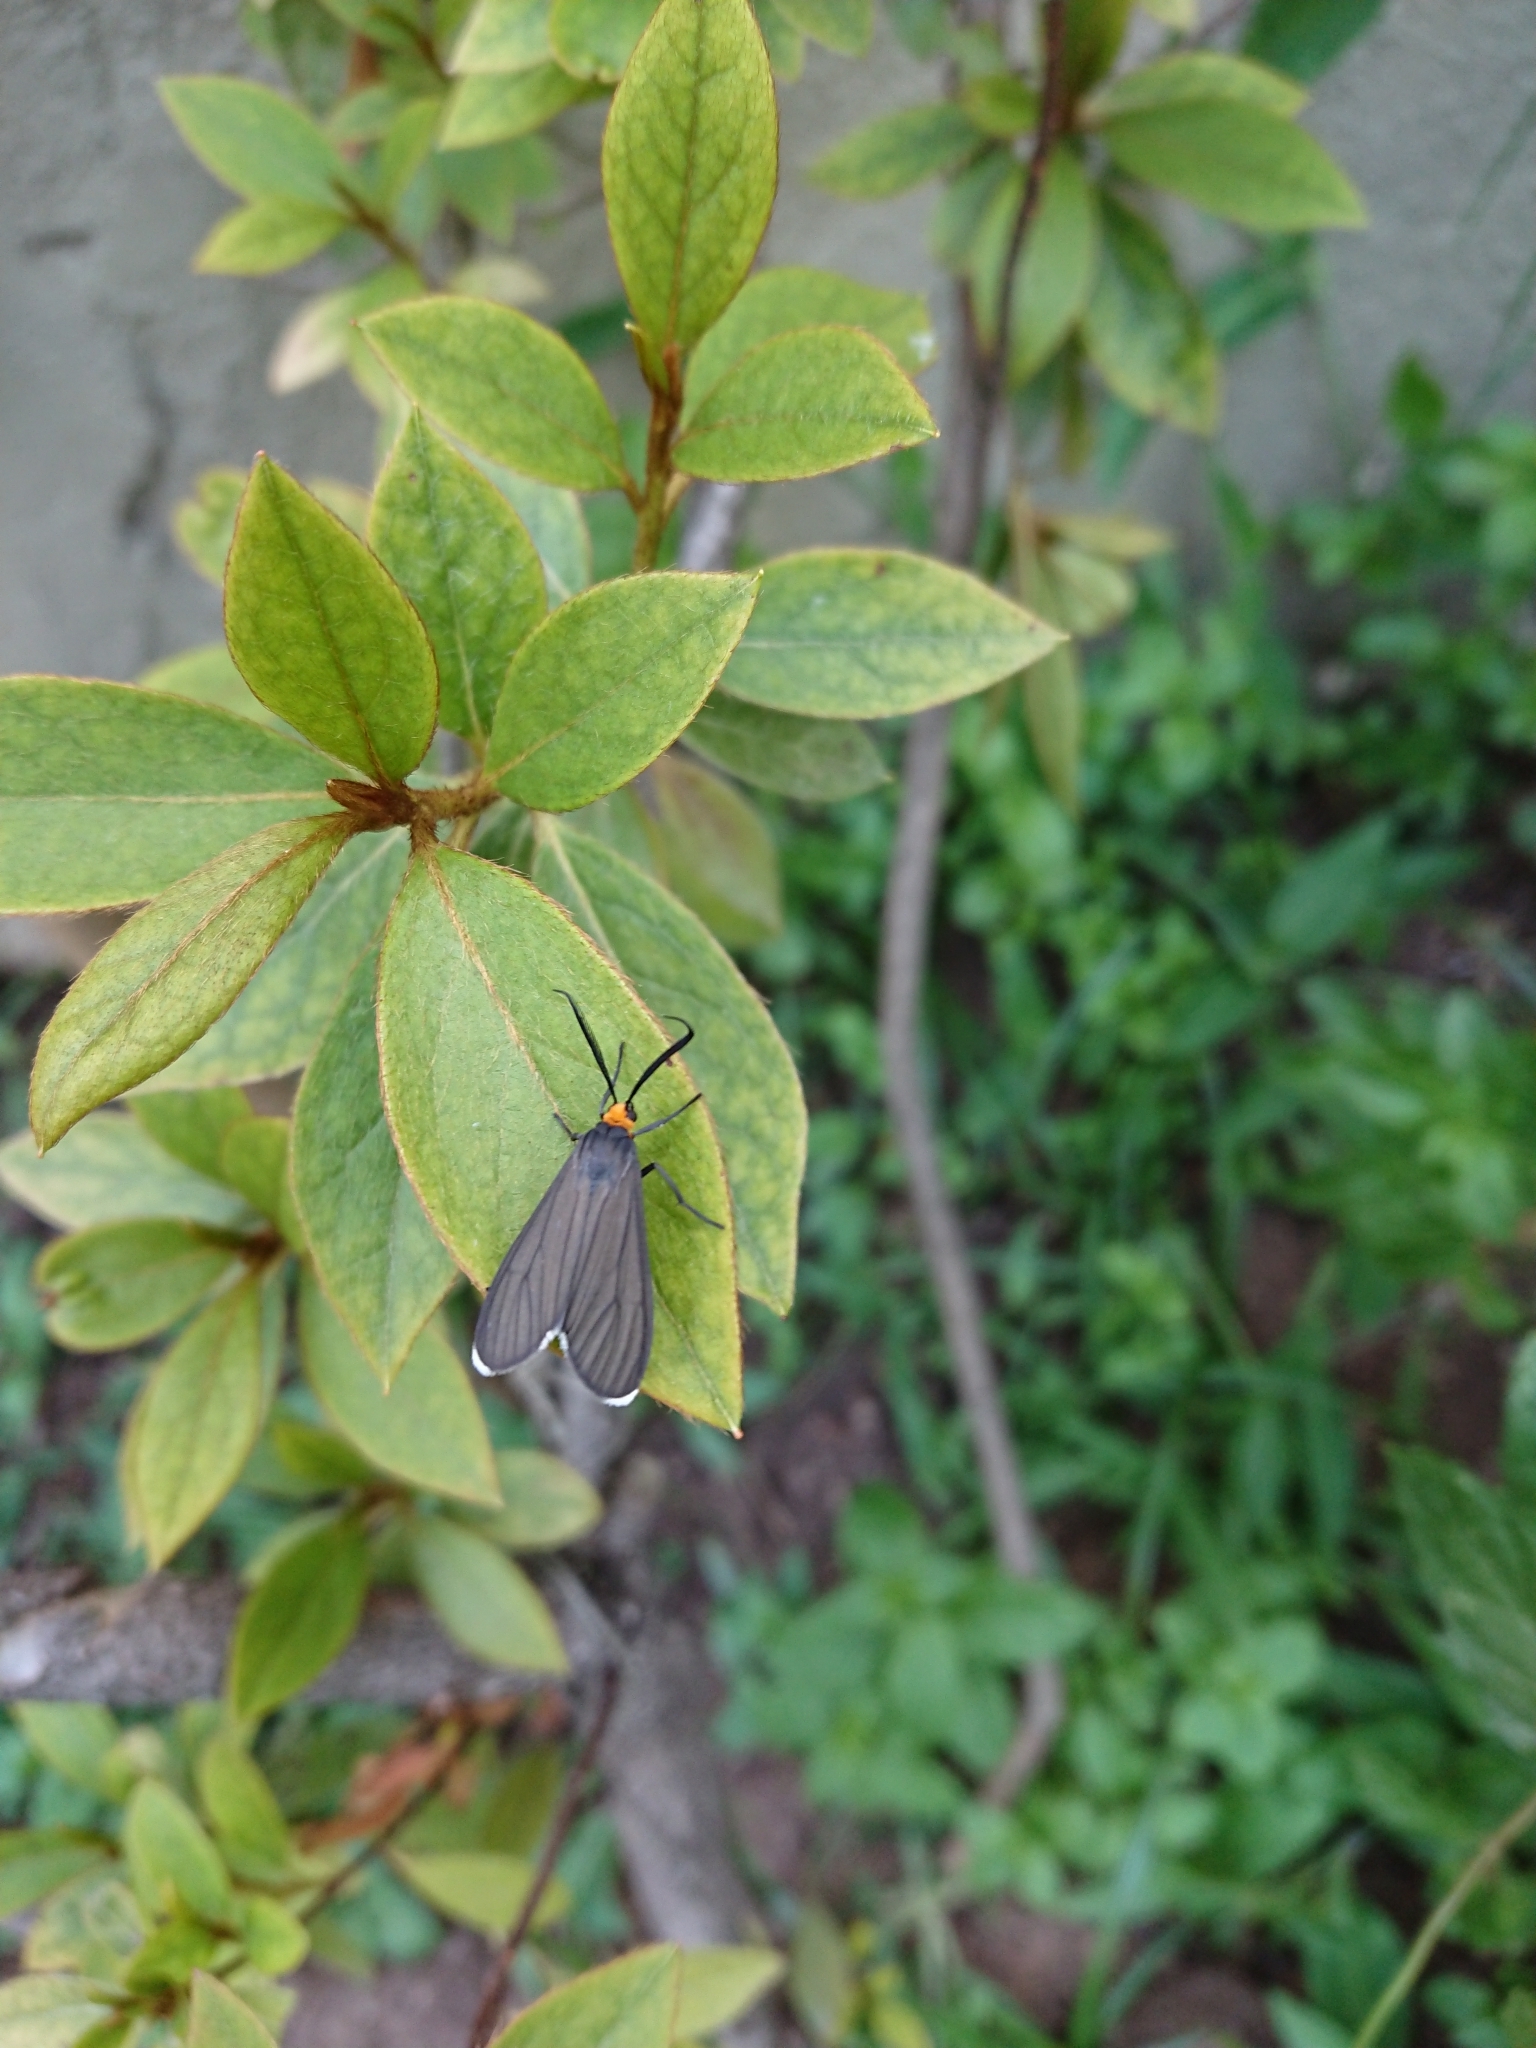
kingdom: Animalia
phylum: Arthropoda
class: Insecta
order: Lepidoptera
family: Erebidae
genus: Ctenucha
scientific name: Ctenucha rubriceps
